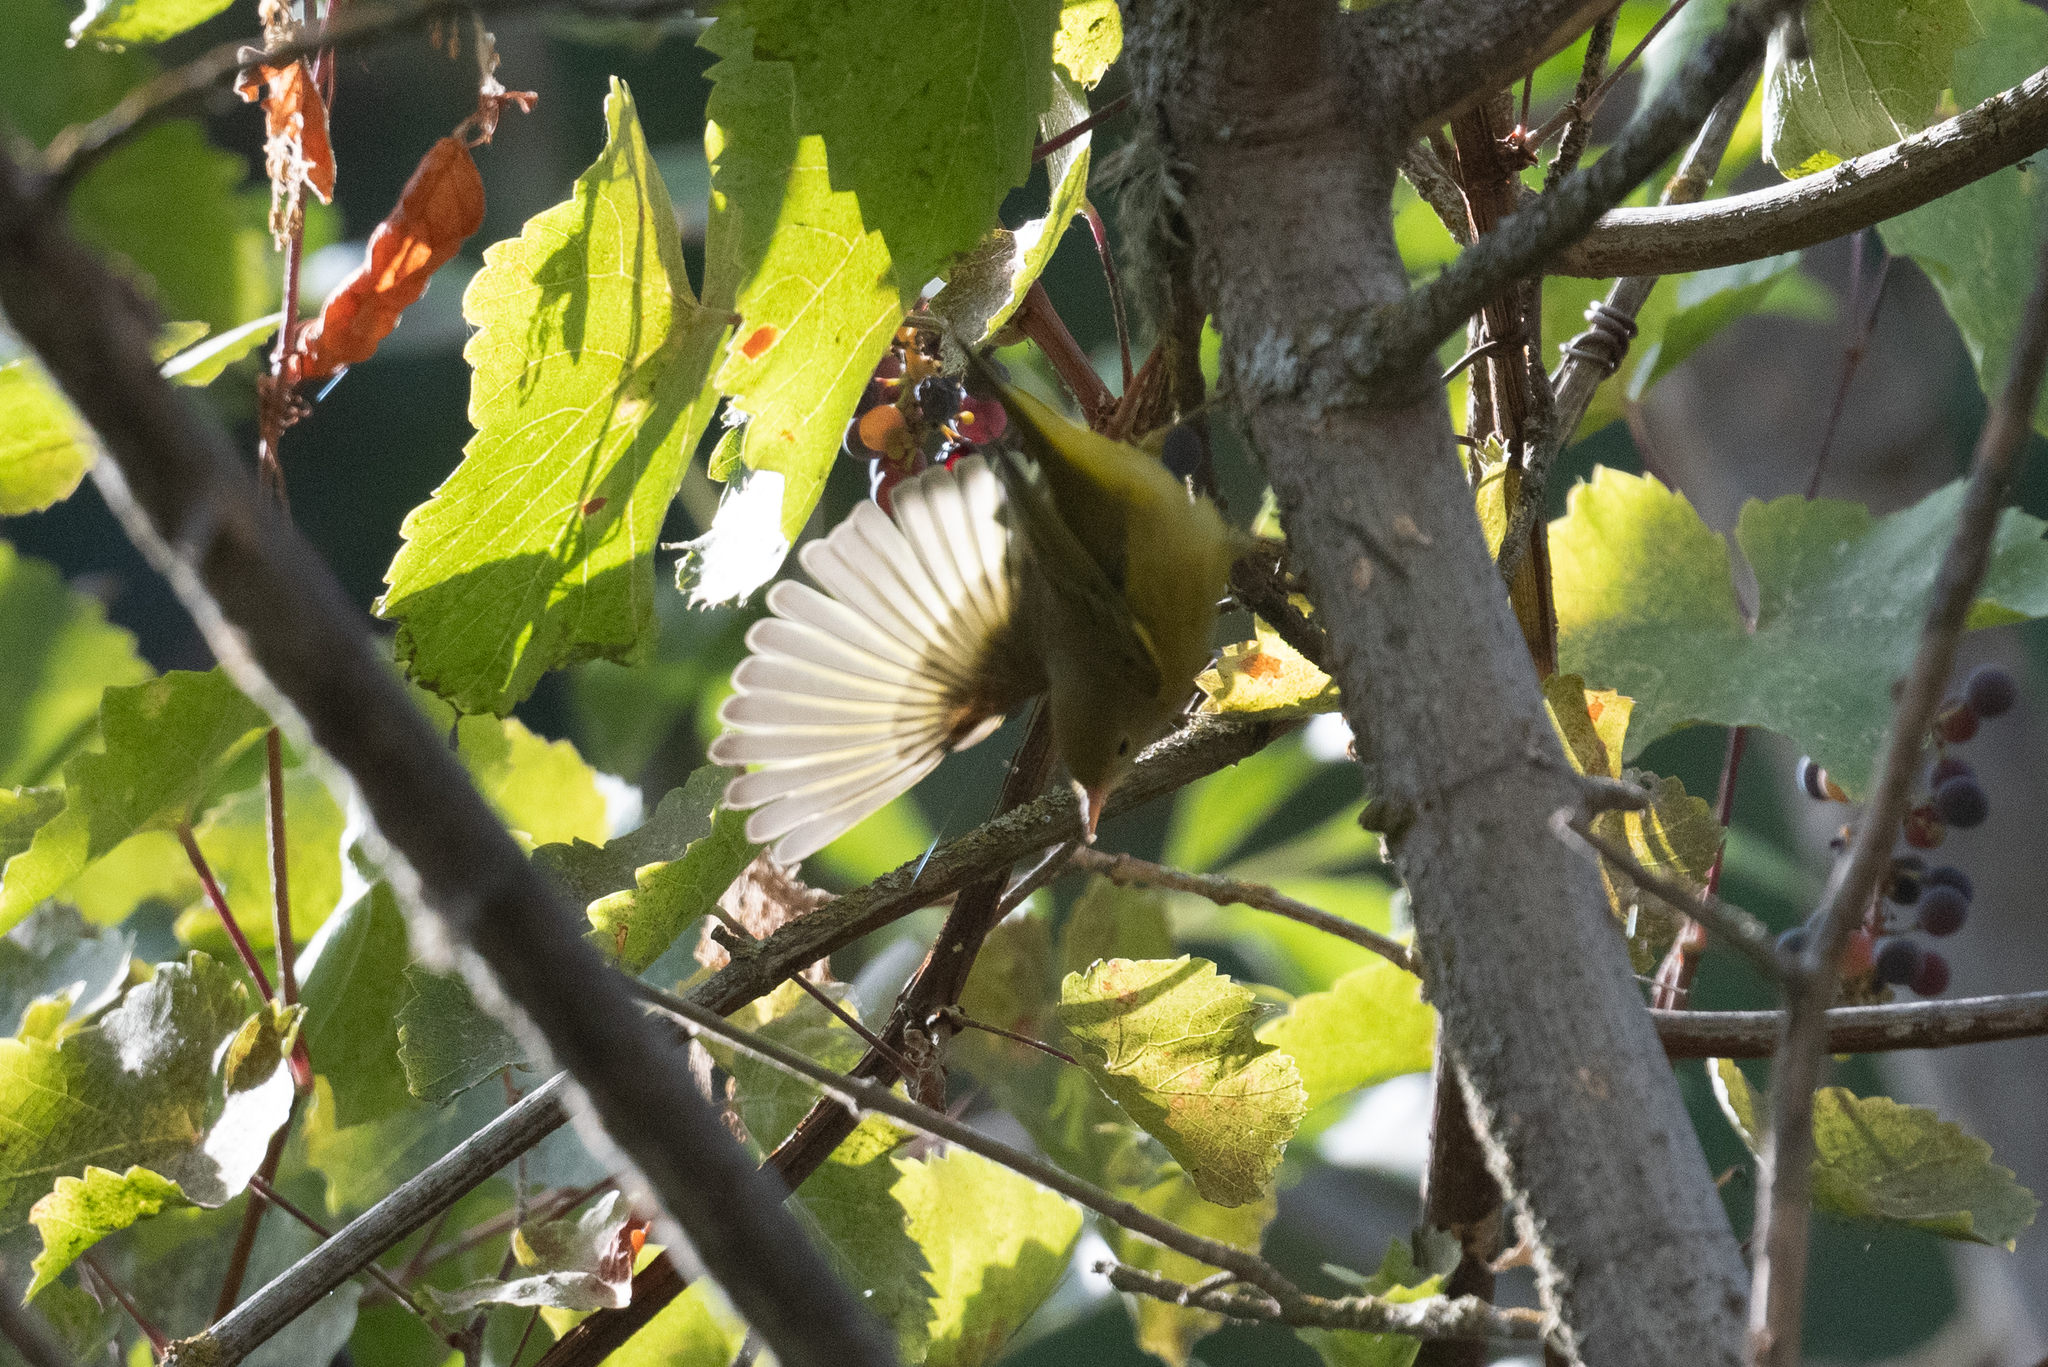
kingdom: Animalia
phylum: Chordata
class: Aves
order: Passeriformes
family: Parulidae
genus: Setophaga
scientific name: Setophaga petechia
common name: Yellow warbler
